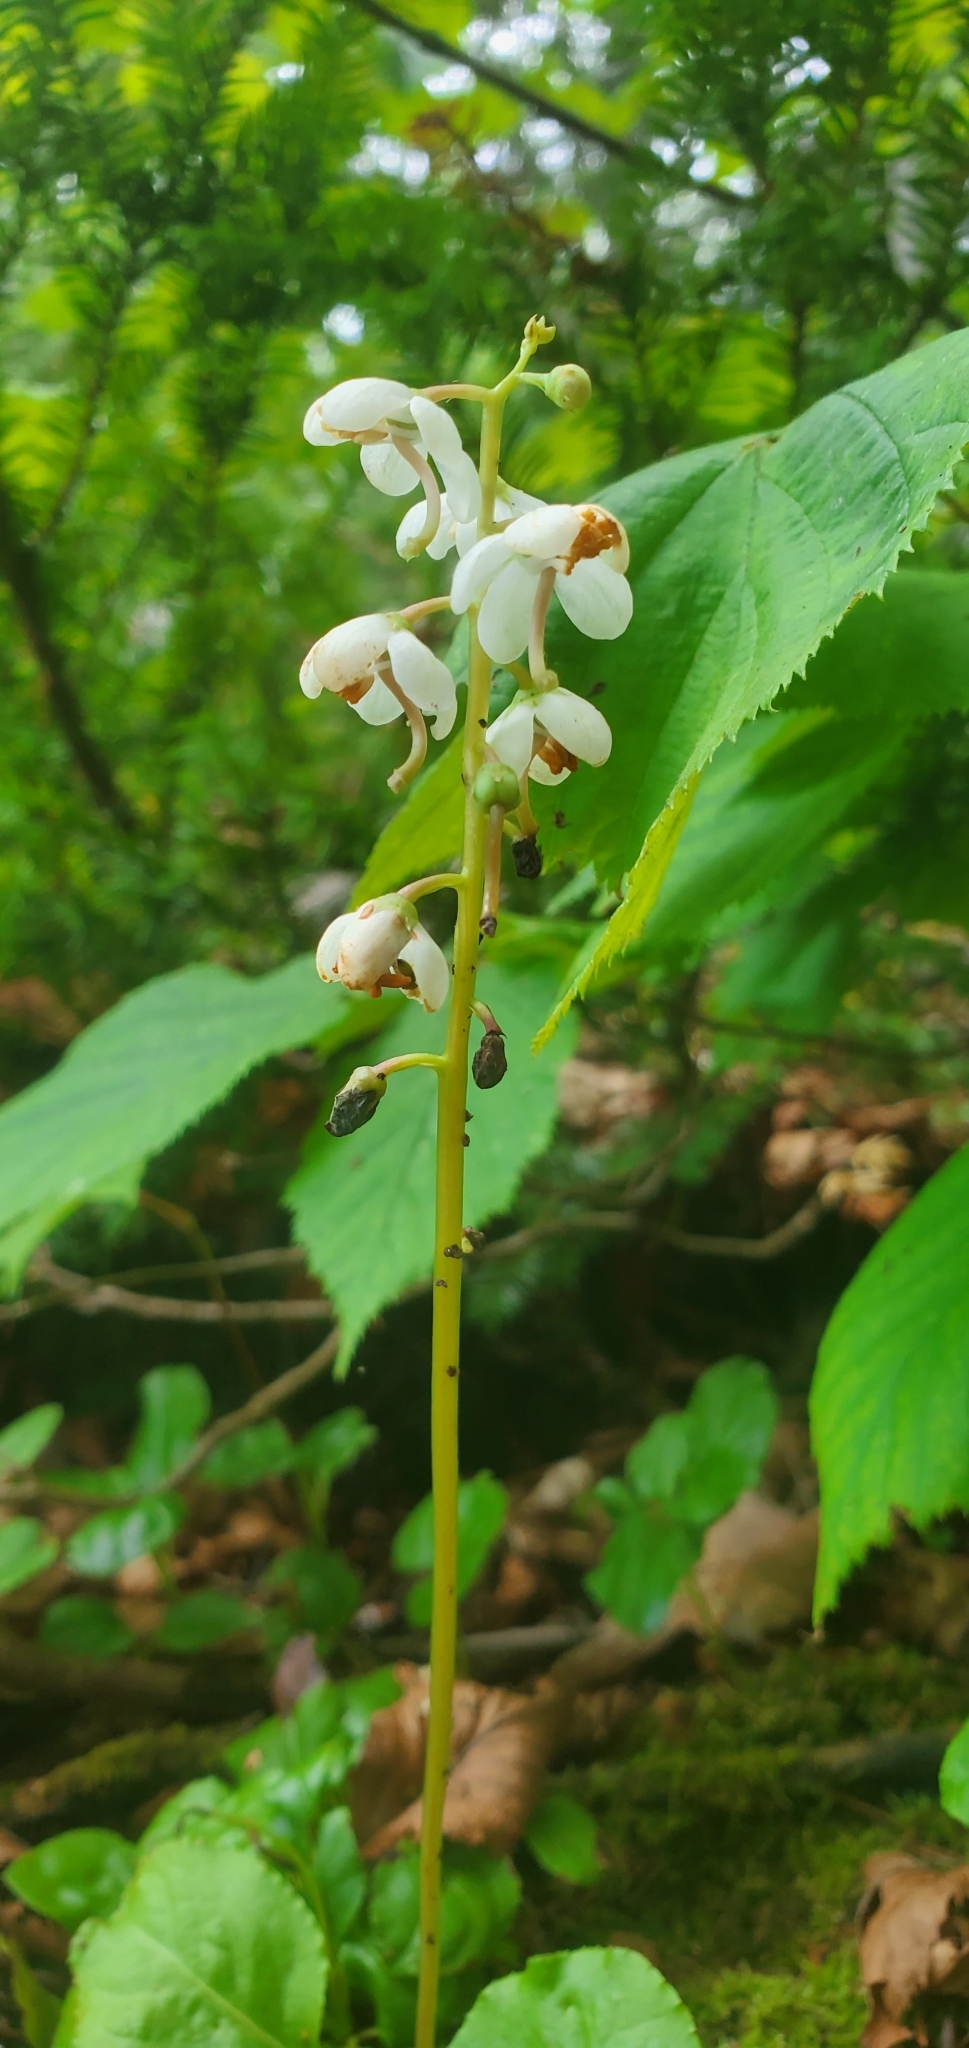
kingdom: Plantae
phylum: Tracheophyta
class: Magnoliopsida
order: Ericales
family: Ericaceae
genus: Pyrola
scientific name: Pyrola elliptica
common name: Shinleaf
